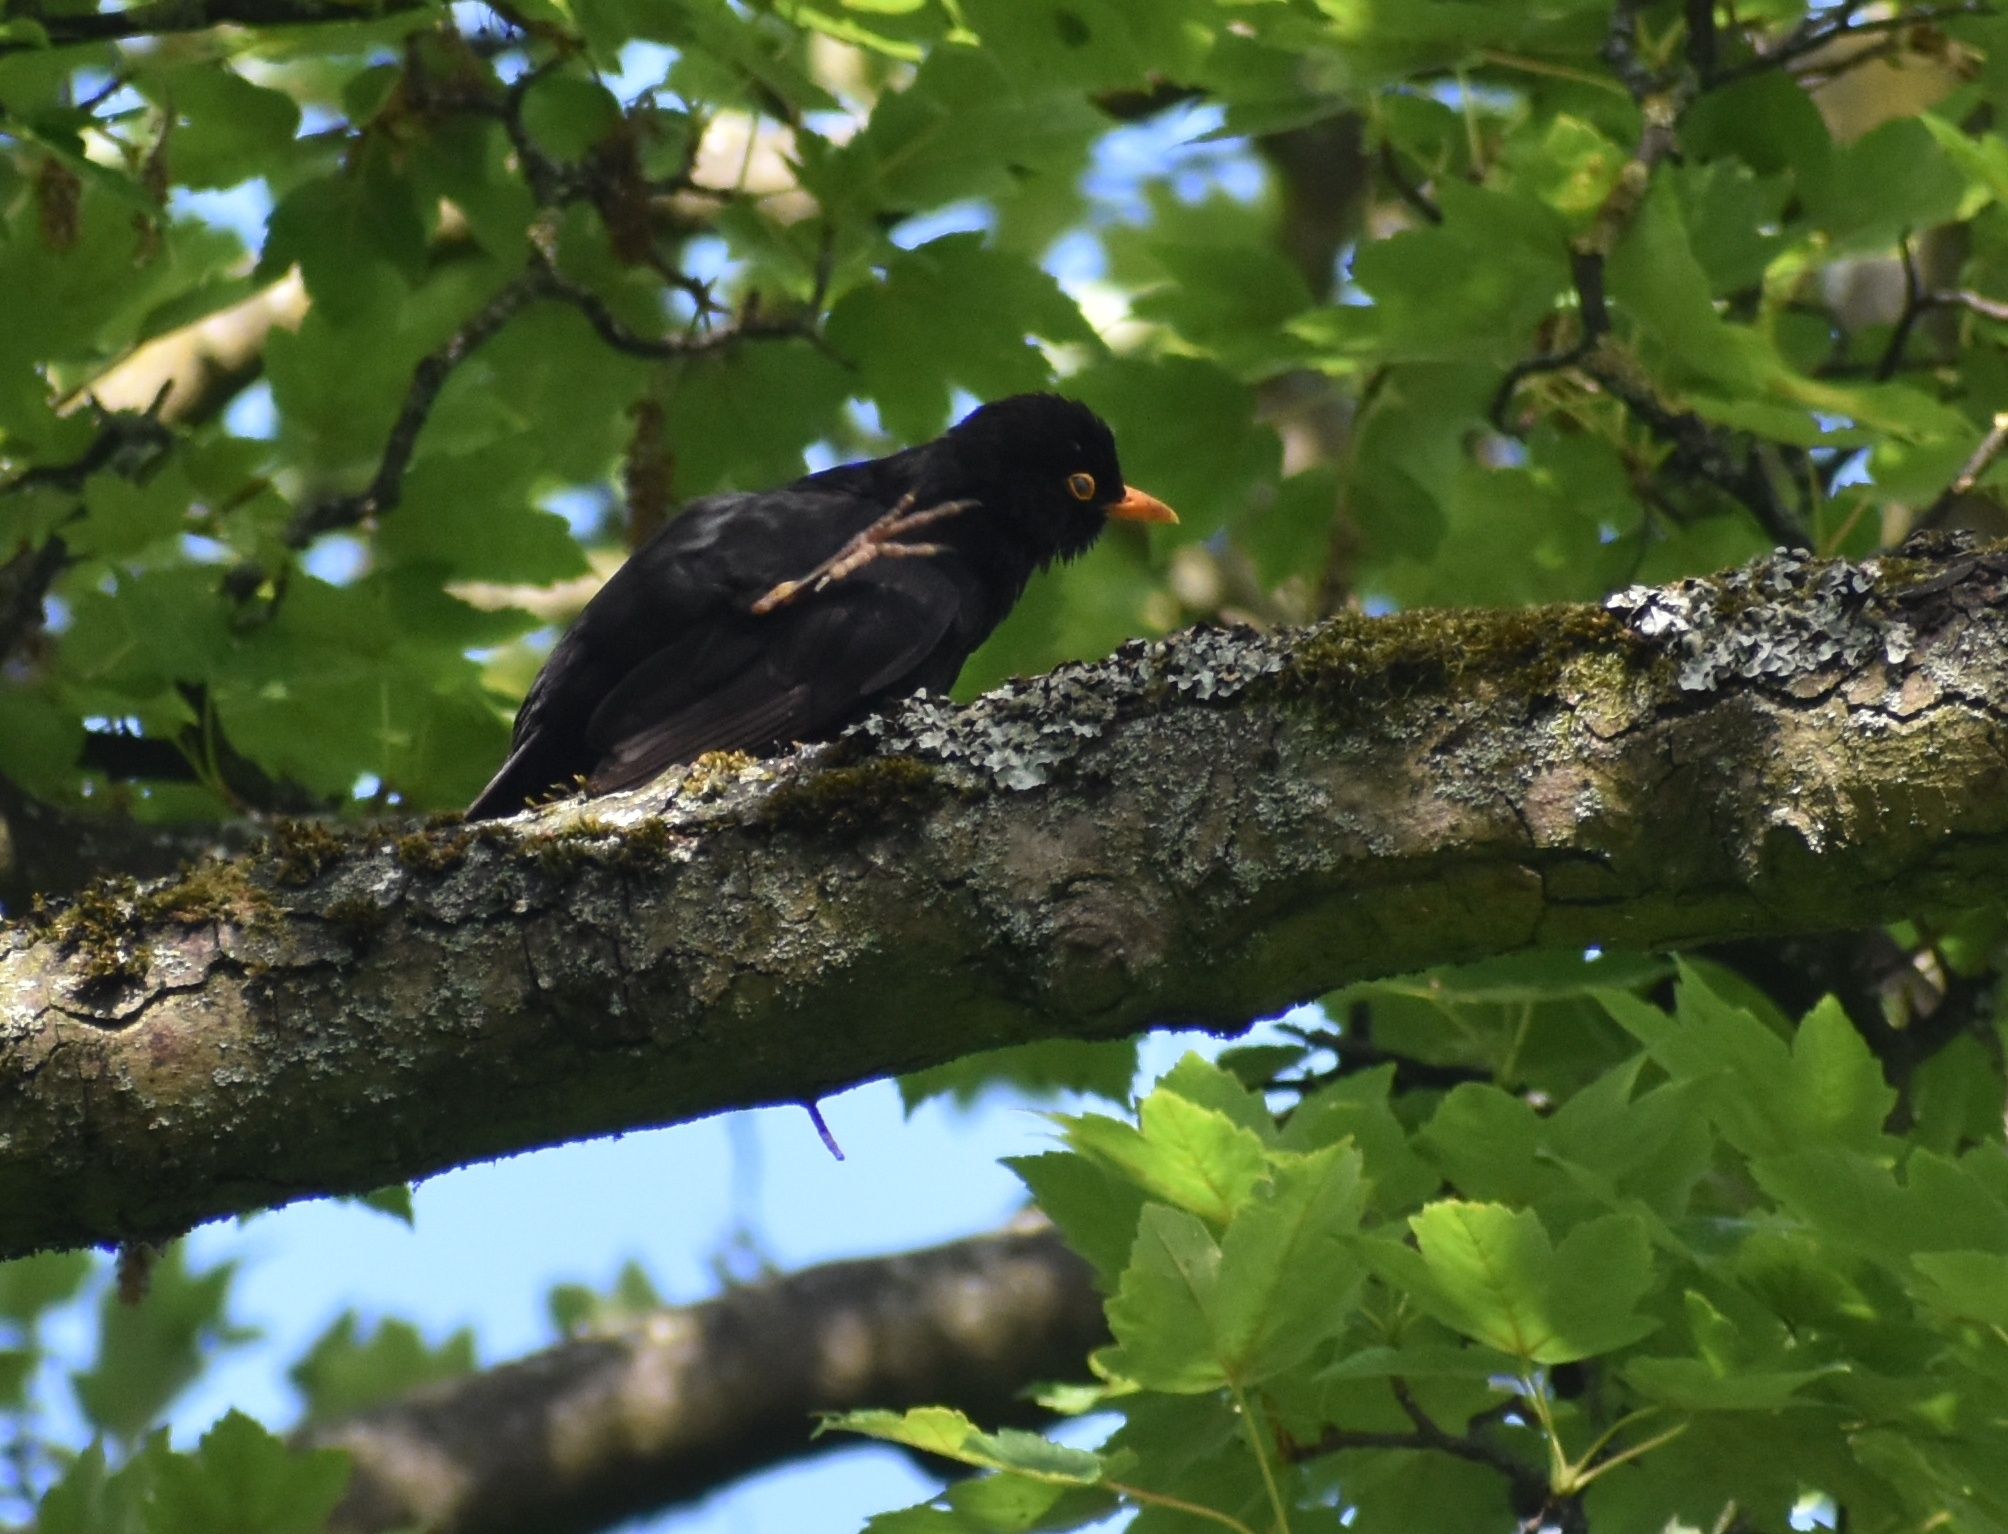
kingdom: Animalia
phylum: Chordata
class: Aves
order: Passeriformes
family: Turdidae
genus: Turdus
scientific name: Turdus merula
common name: Common blackbird
